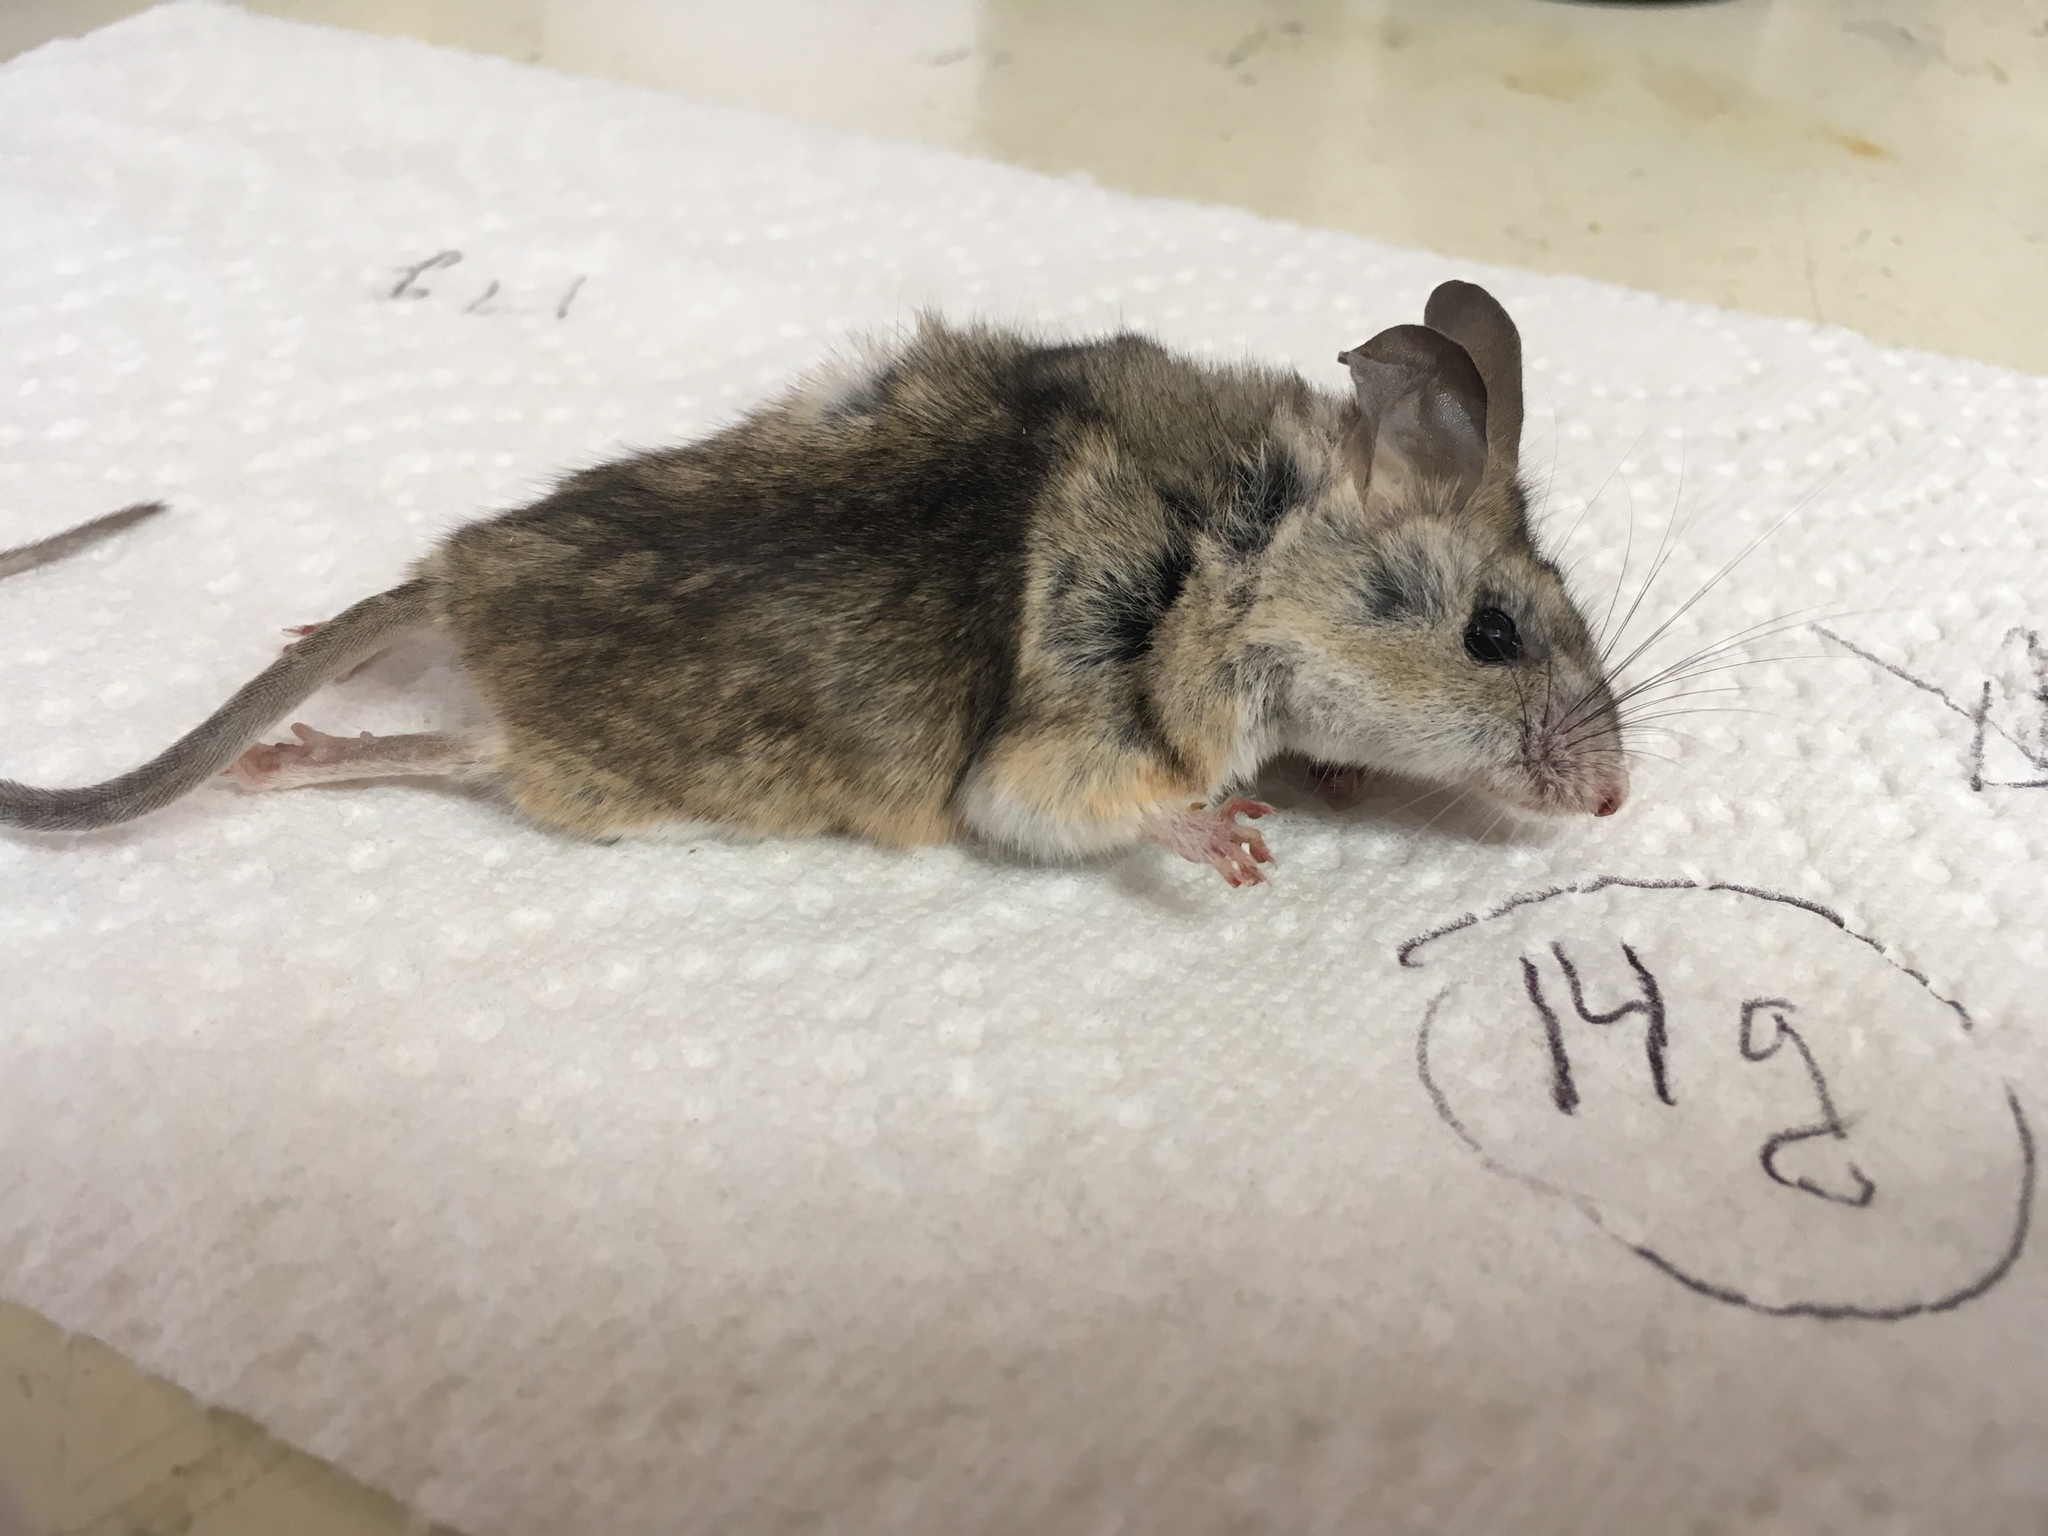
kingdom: Animalia
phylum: Chordata
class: Mammalia
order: Rodentia
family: Cricetidae
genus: Peromyscus
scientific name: Peromyscus eremicus
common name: Cactus deermouse
